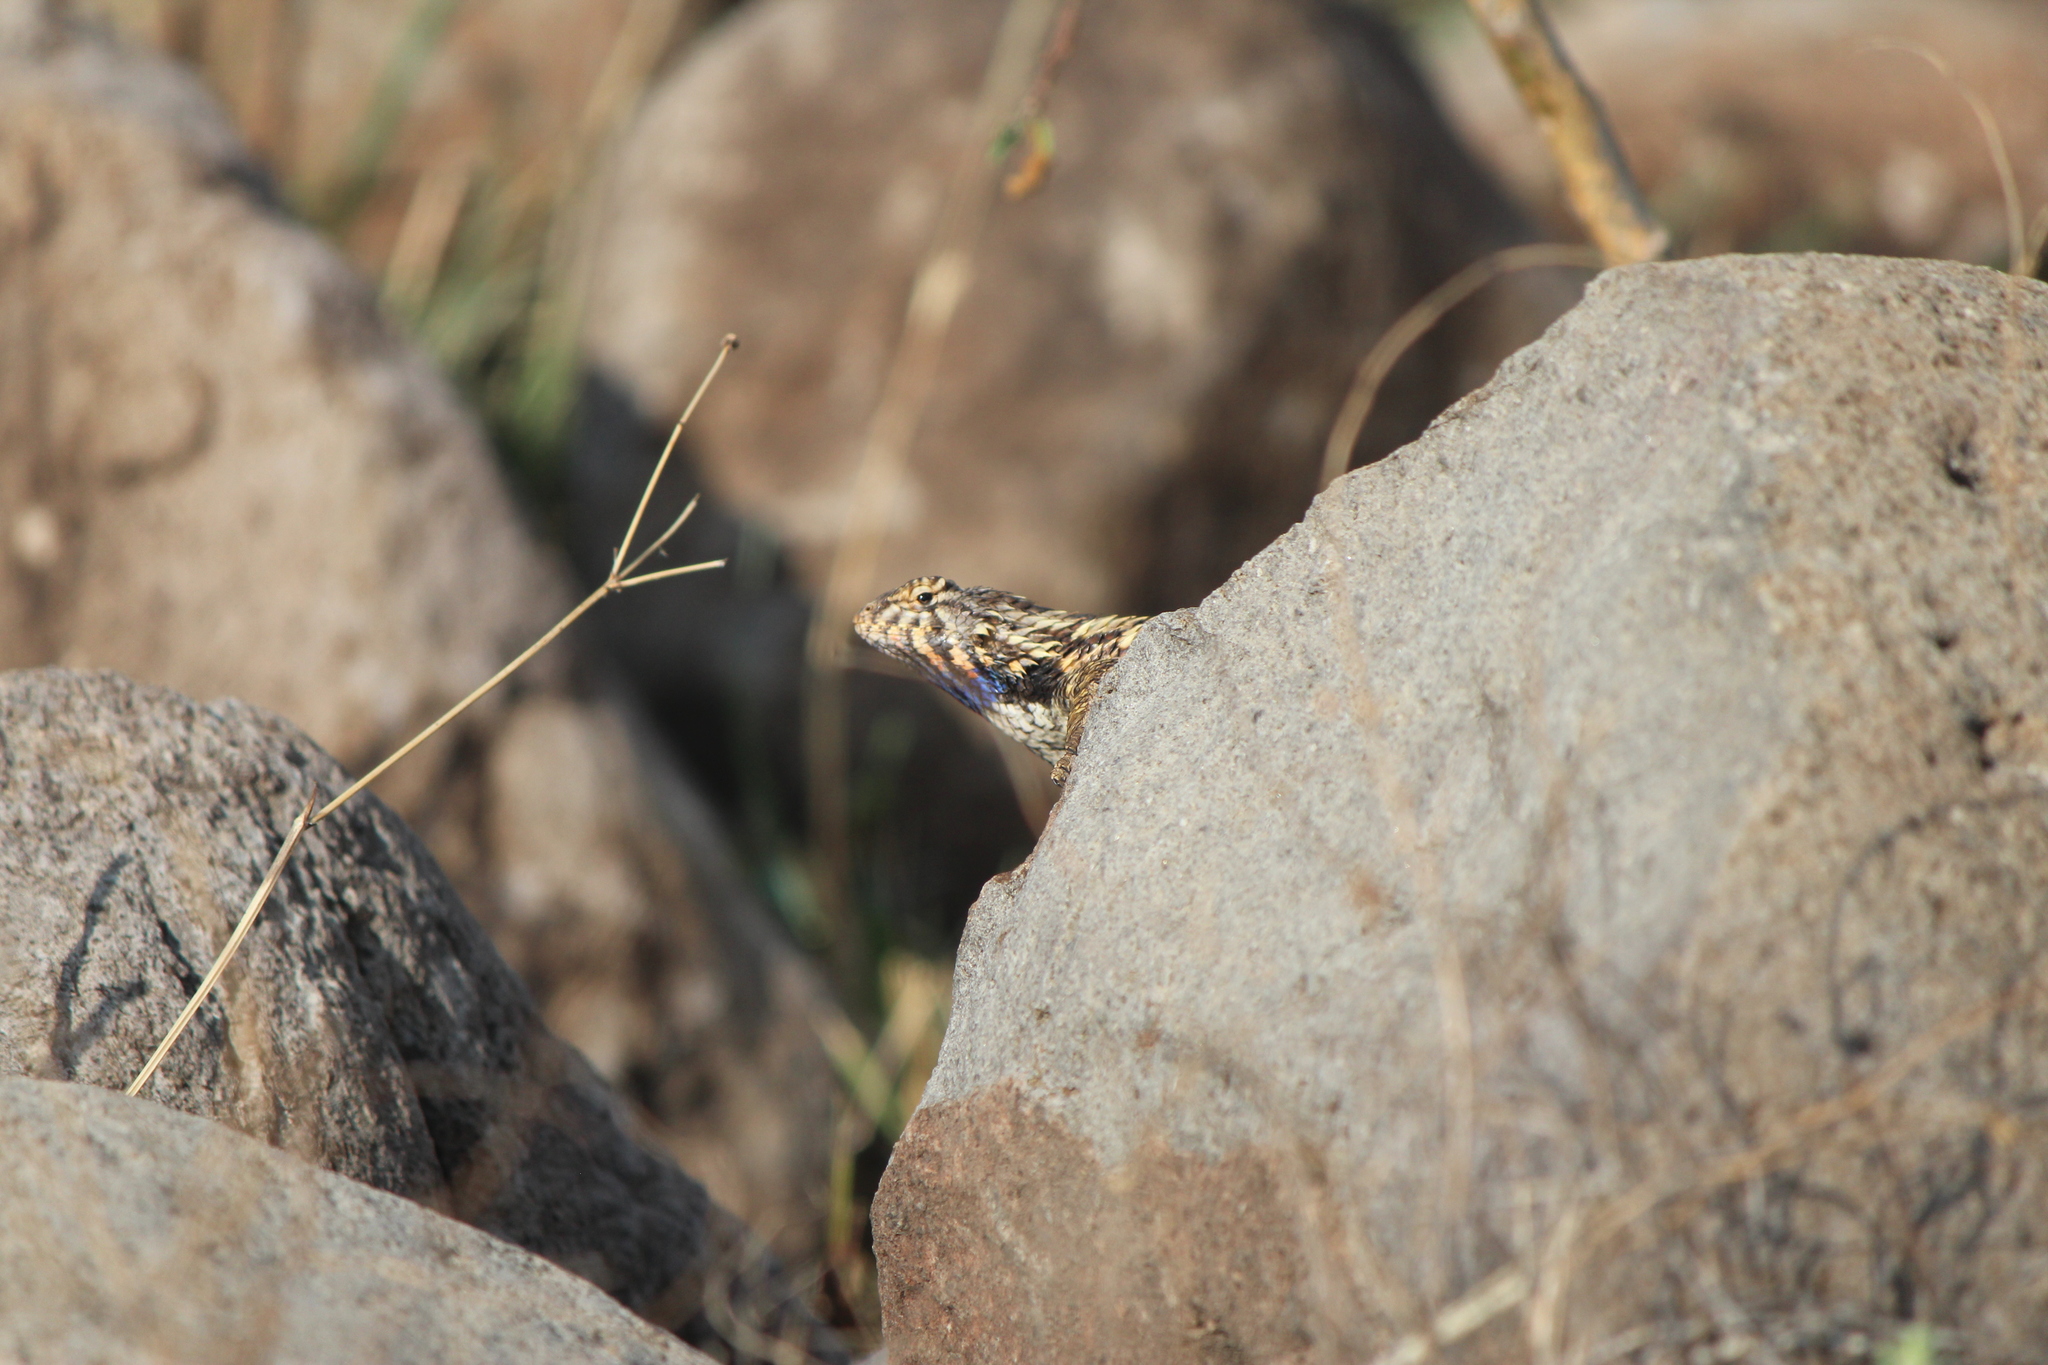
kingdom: Animalia
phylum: Chordata
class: Squamata
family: Phrynosomatidae
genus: Sceloporus
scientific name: Sceloporus spinosus
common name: Blue-spotted spiny lizard [caeruleopunctatus]
